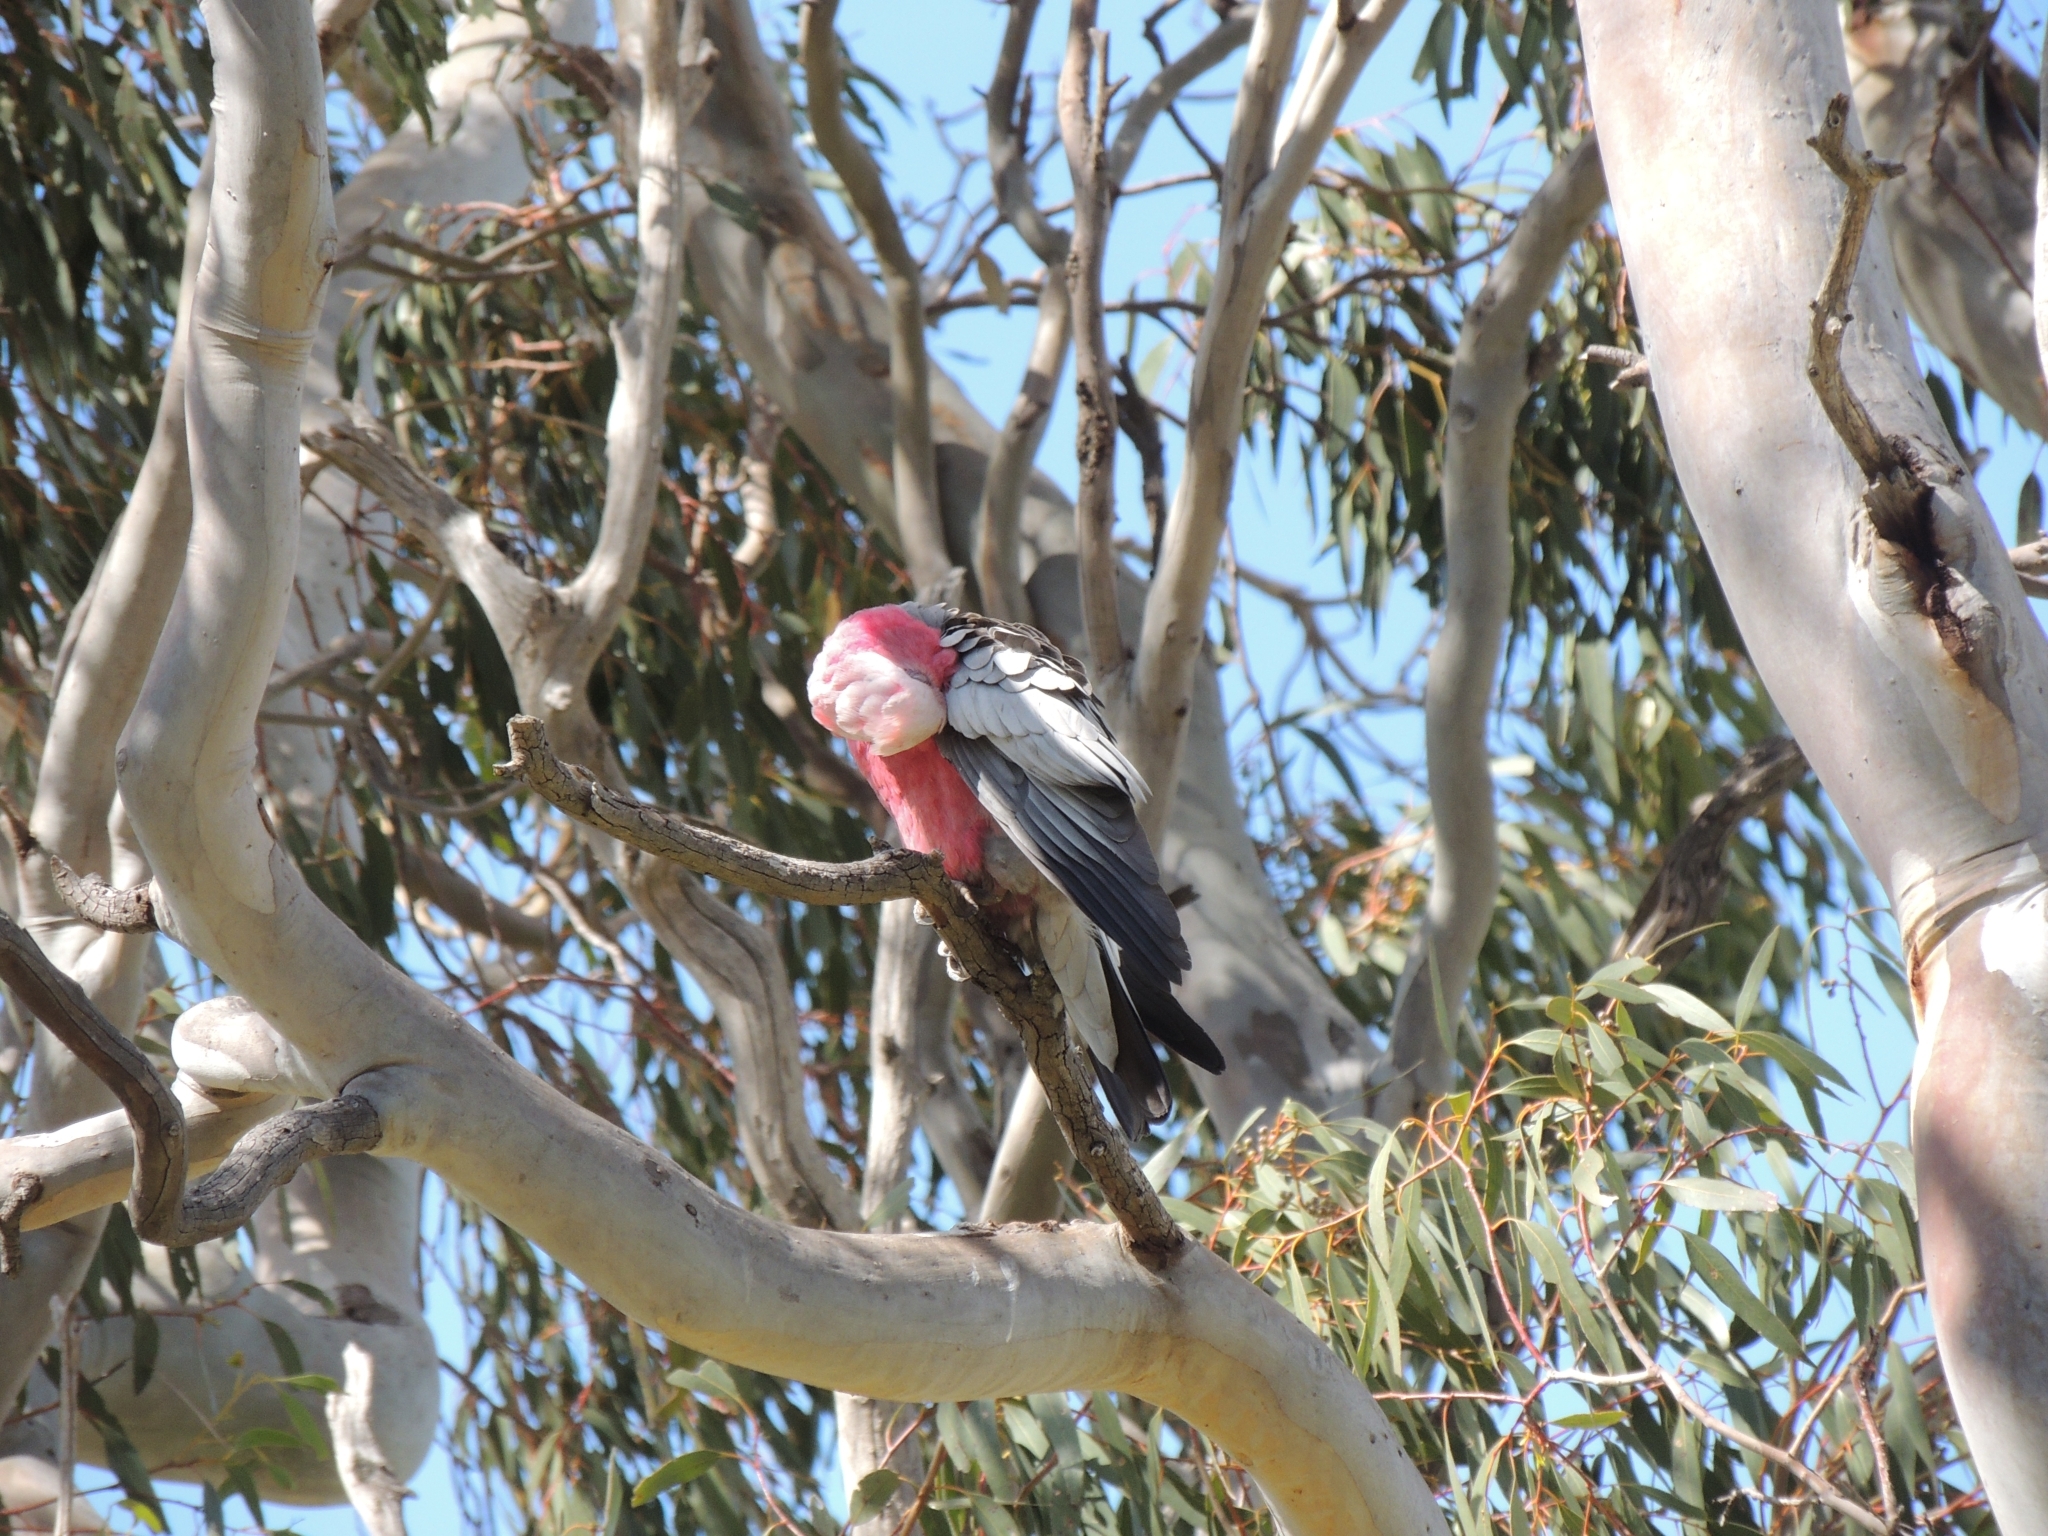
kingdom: Animalia
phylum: Chordata
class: Aves
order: Psittaciformes
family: Psittacidae
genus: Eolophus
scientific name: Eolophus roseicapilla
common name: Galah
